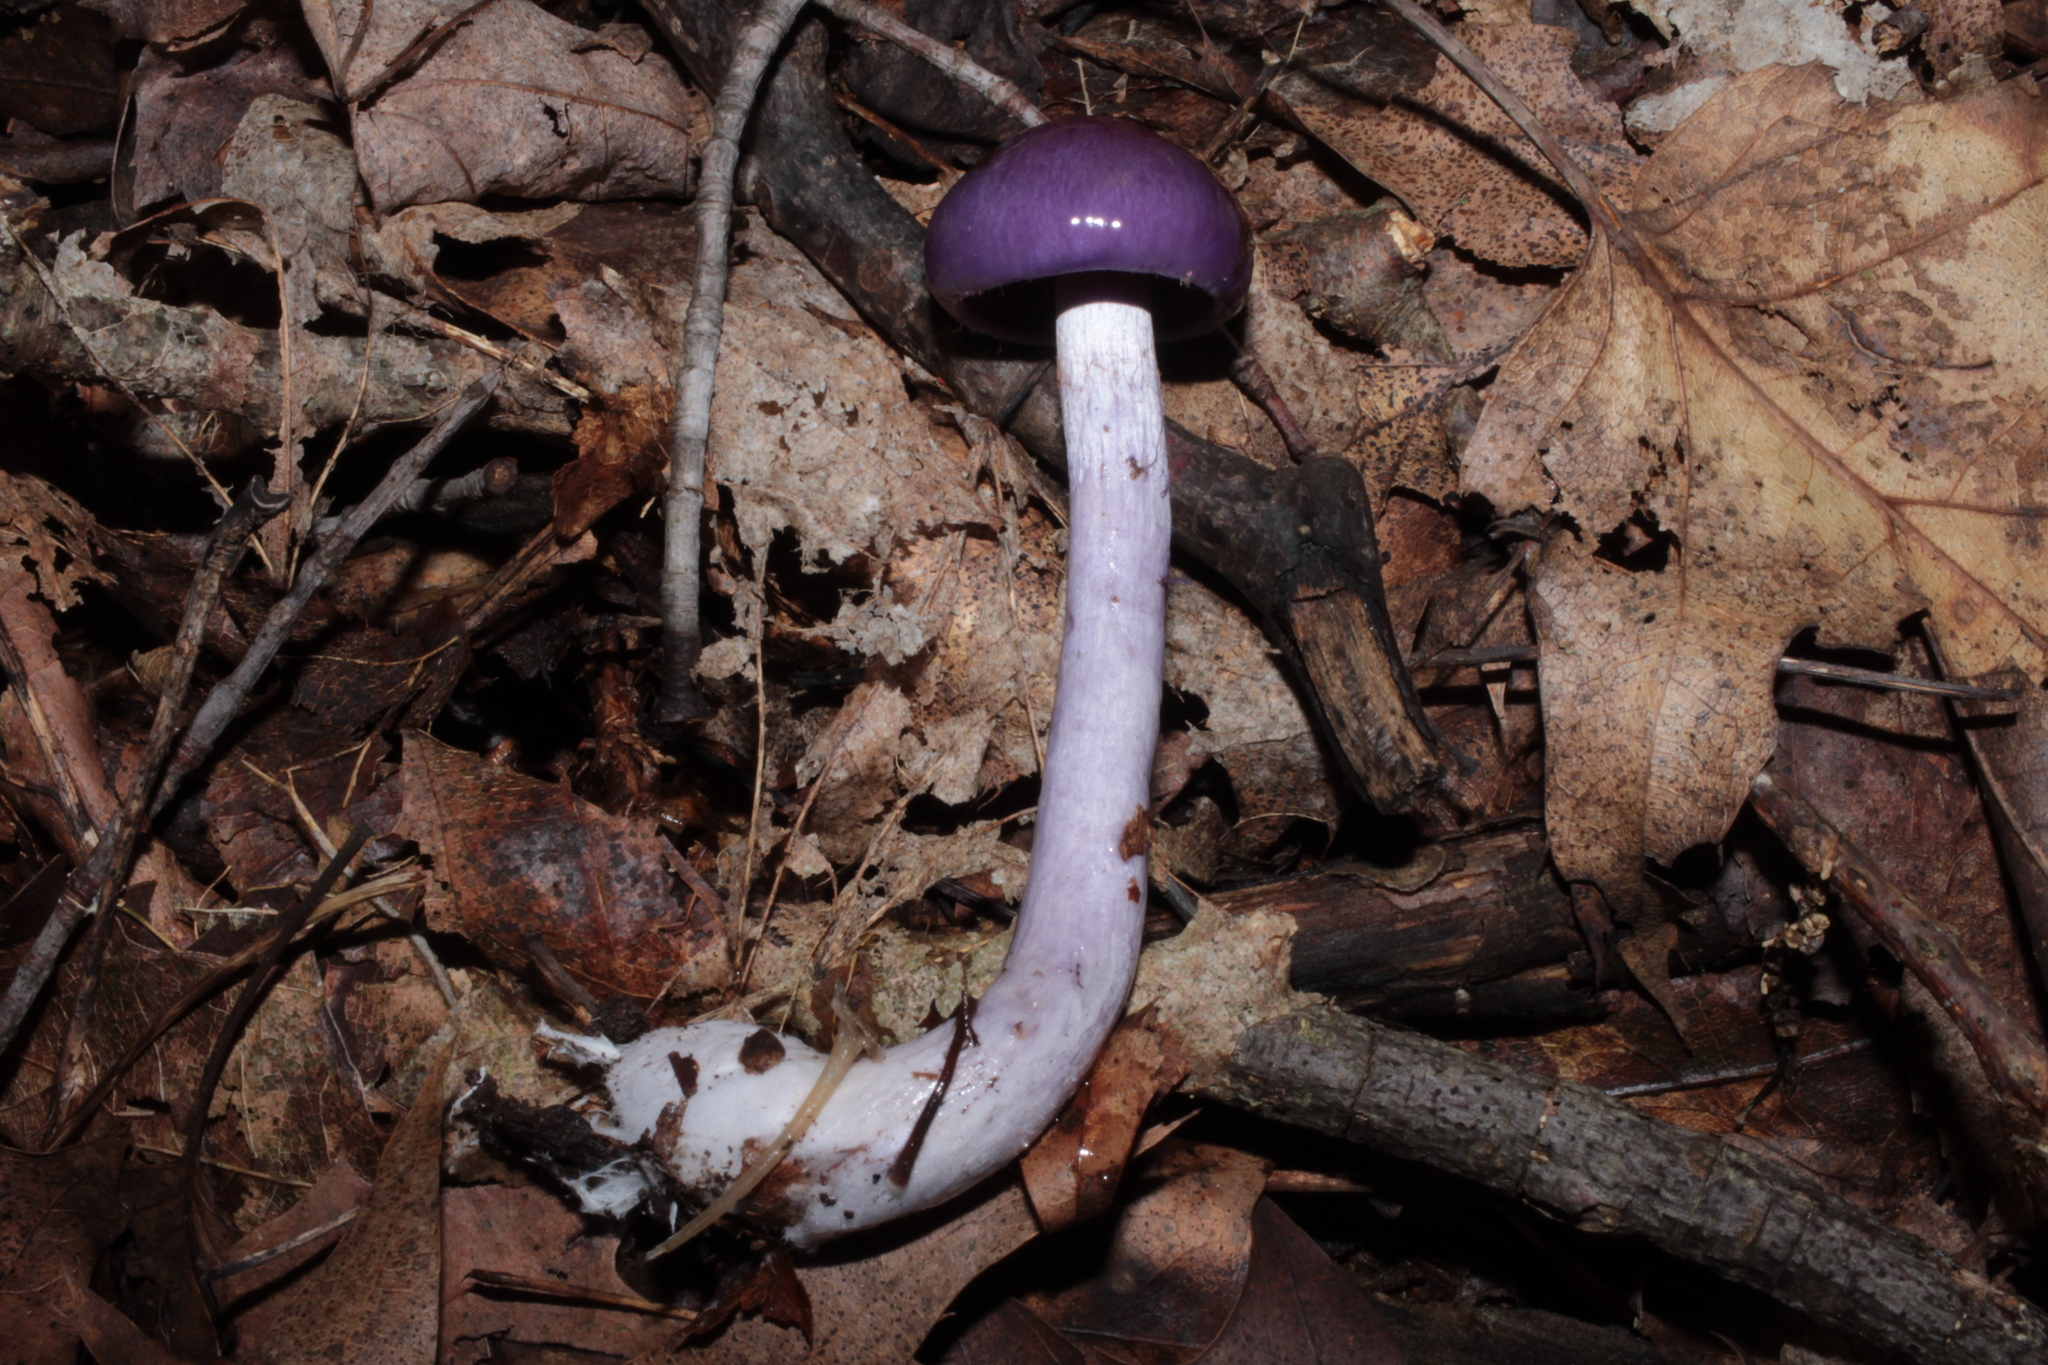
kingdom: Fungi
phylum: Basidiomycota
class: Agaricomycetes
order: Agaricales
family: Cortinariaceae
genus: Cortinarius
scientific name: Cortinarius iodeoides
